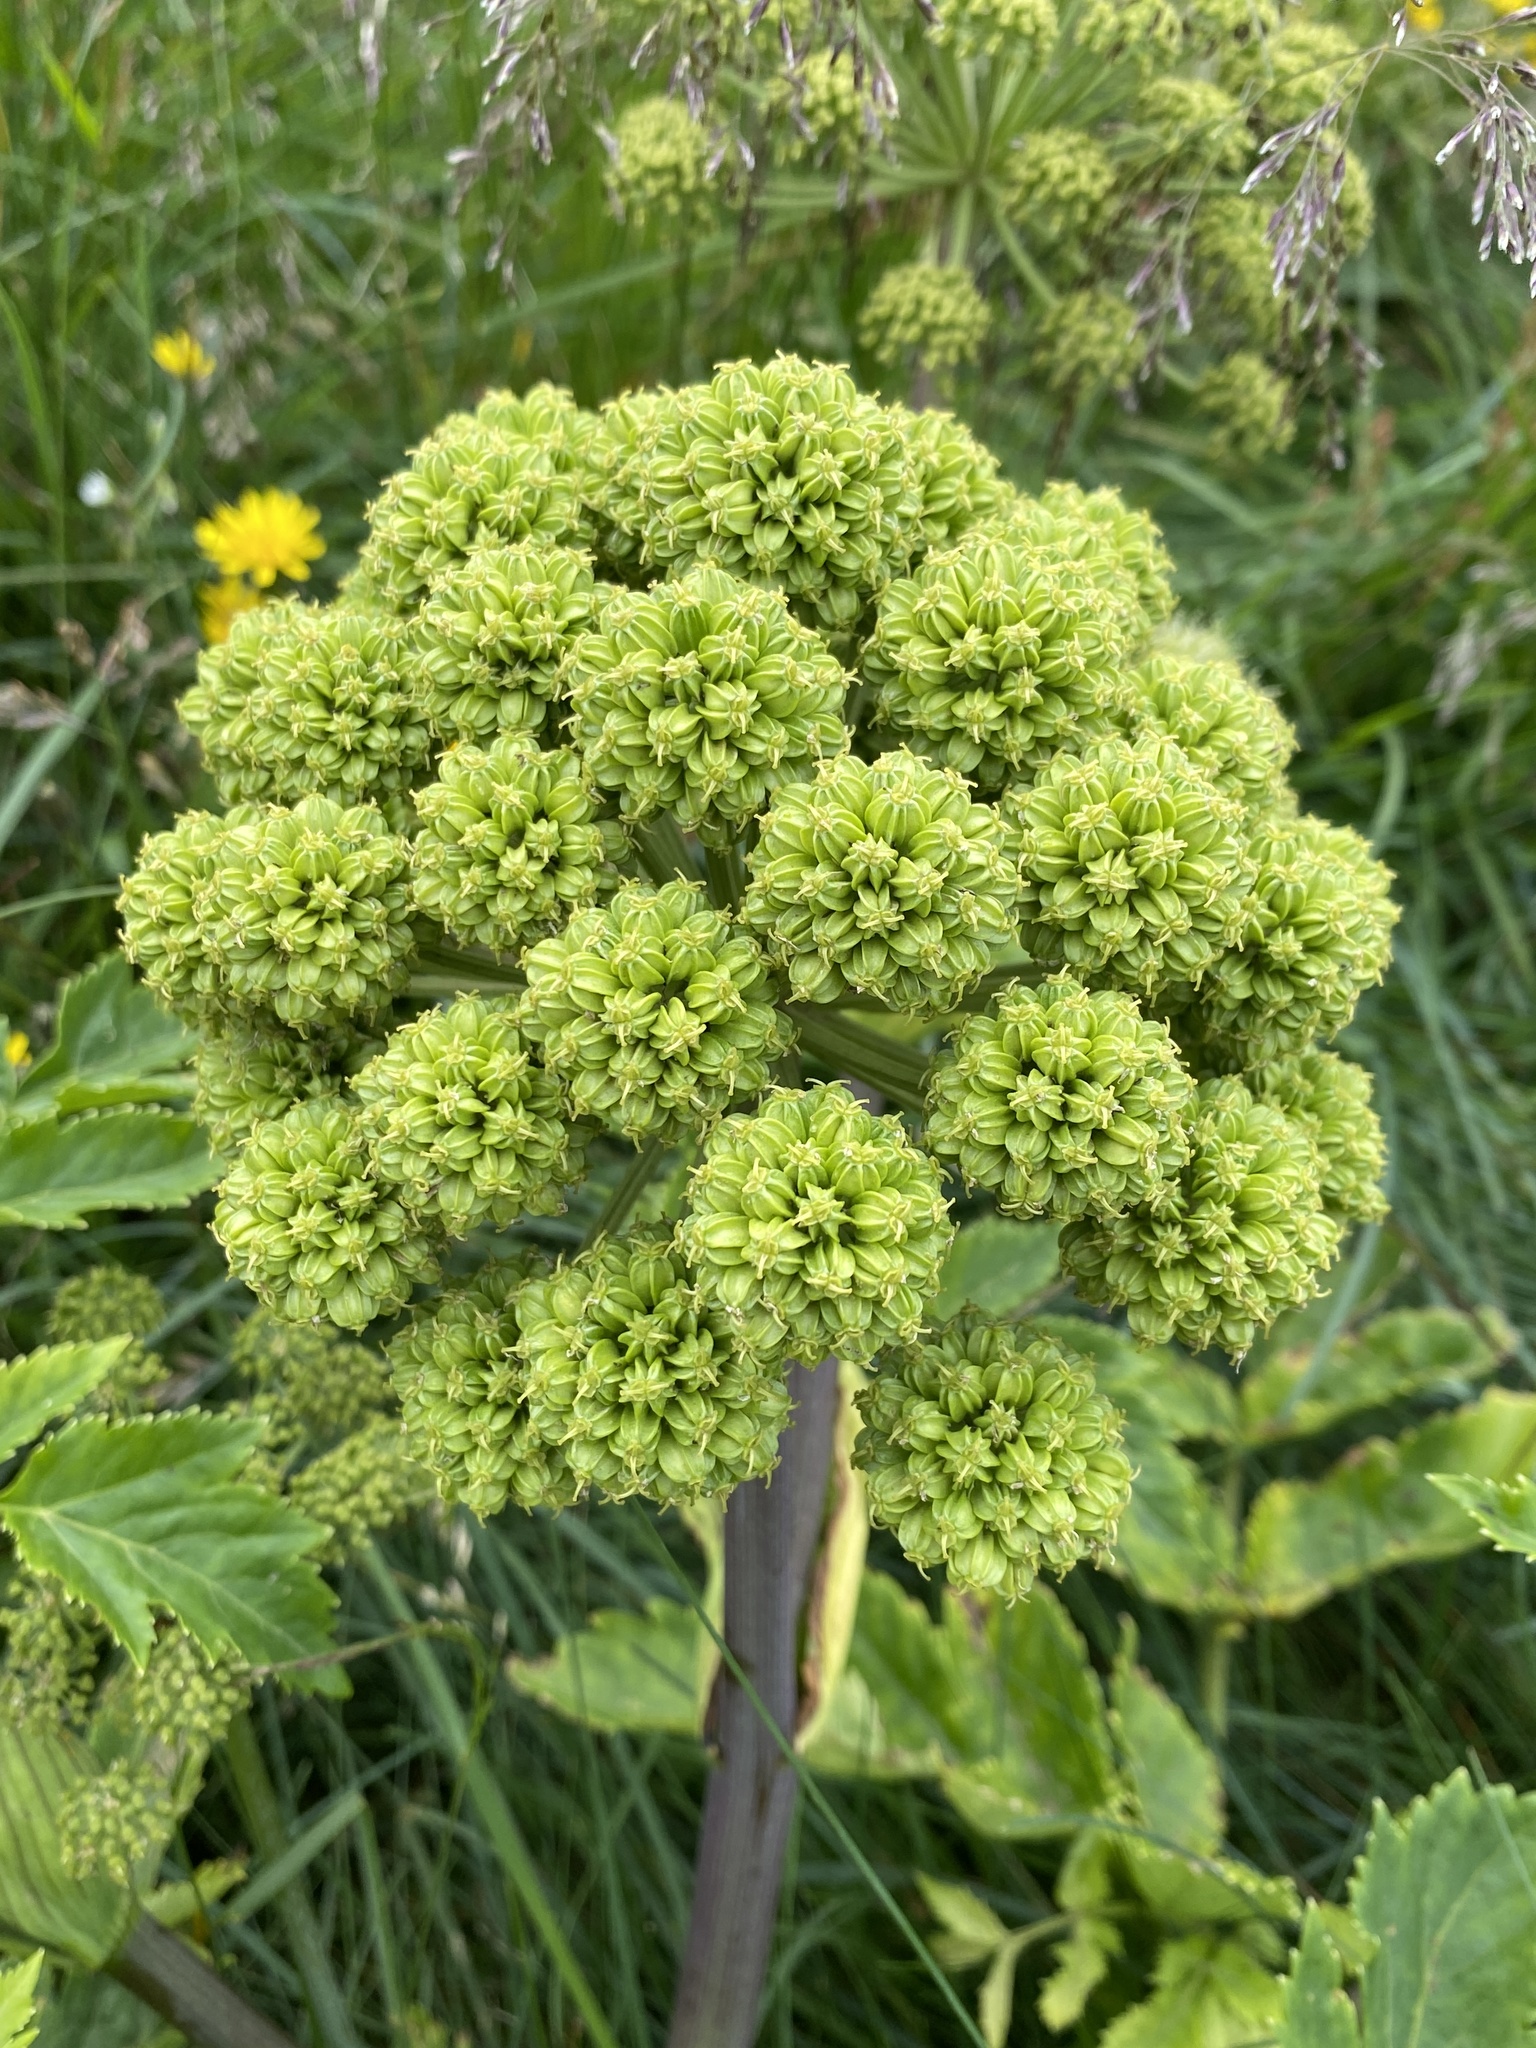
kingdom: Plantae
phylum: Tracheophyta
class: Magnoliopsida
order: Apiales
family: Apiaceae
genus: Angelica
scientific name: Angelica archangelica
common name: Garden angelica
